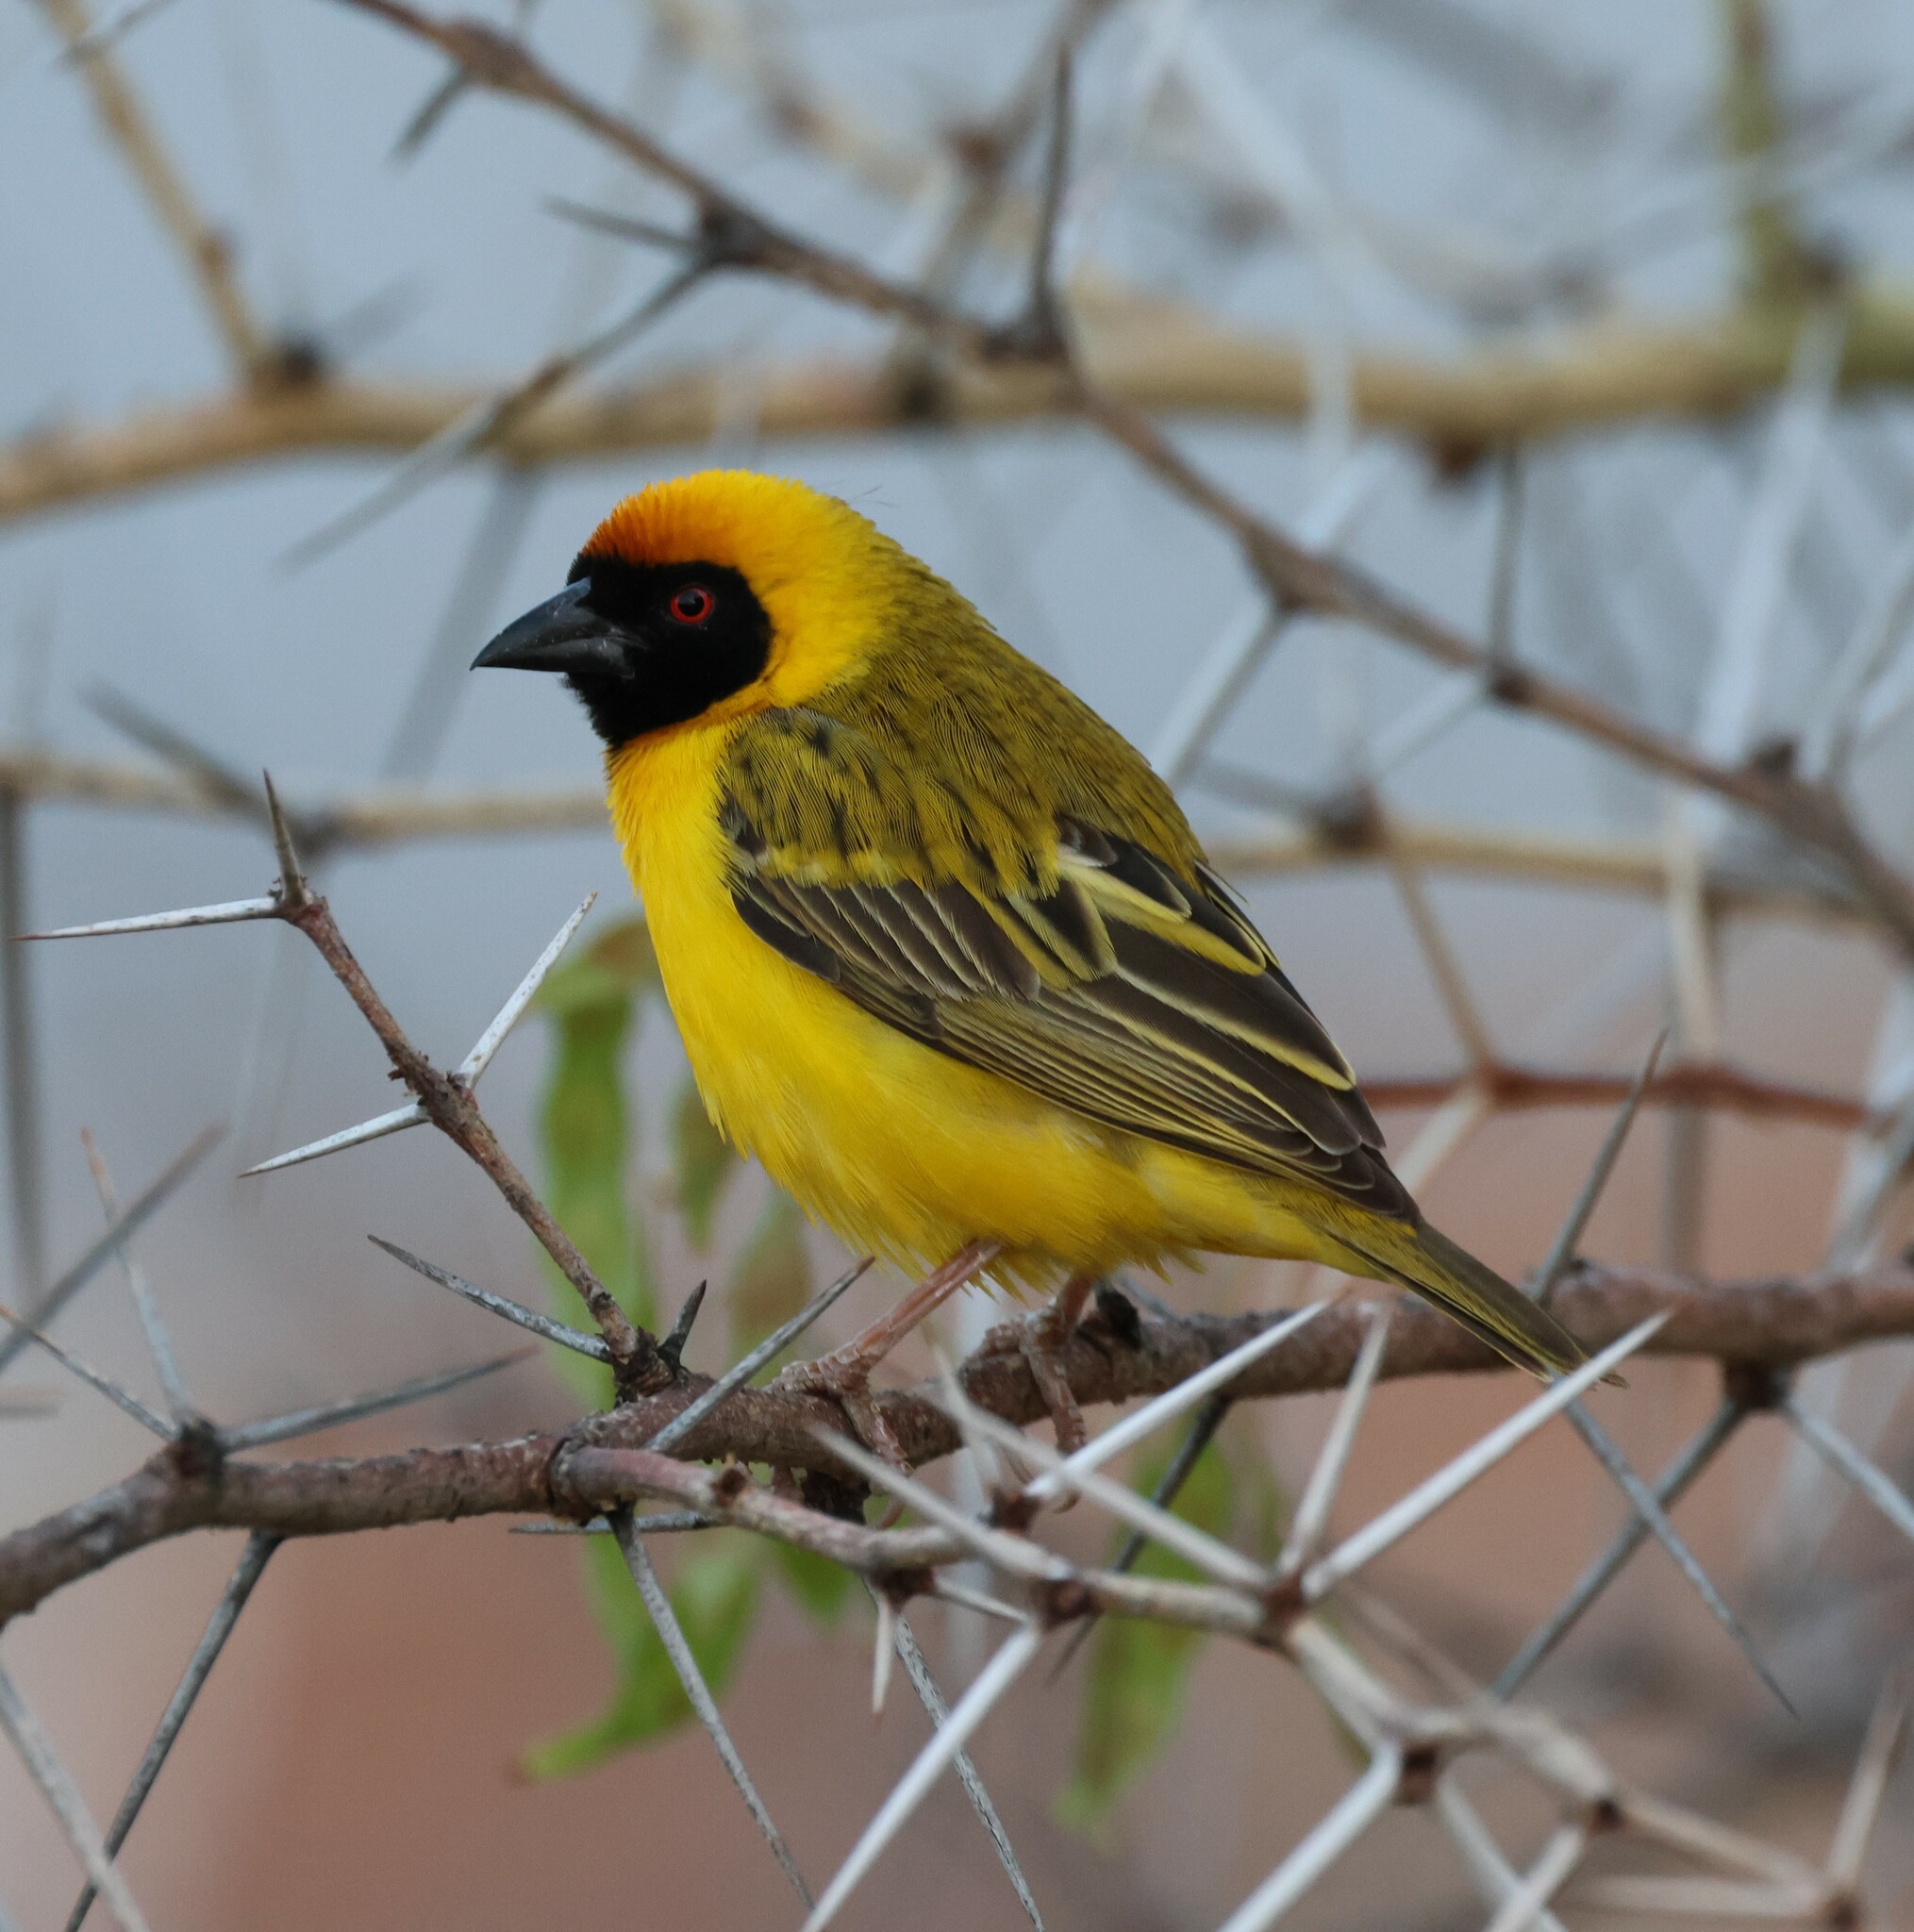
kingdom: Animalia
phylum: Chordata
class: Aves
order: Passeriformes
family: Ploceidae
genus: Ploceus
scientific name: Ploceus velatus
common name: Southern masked weaver
